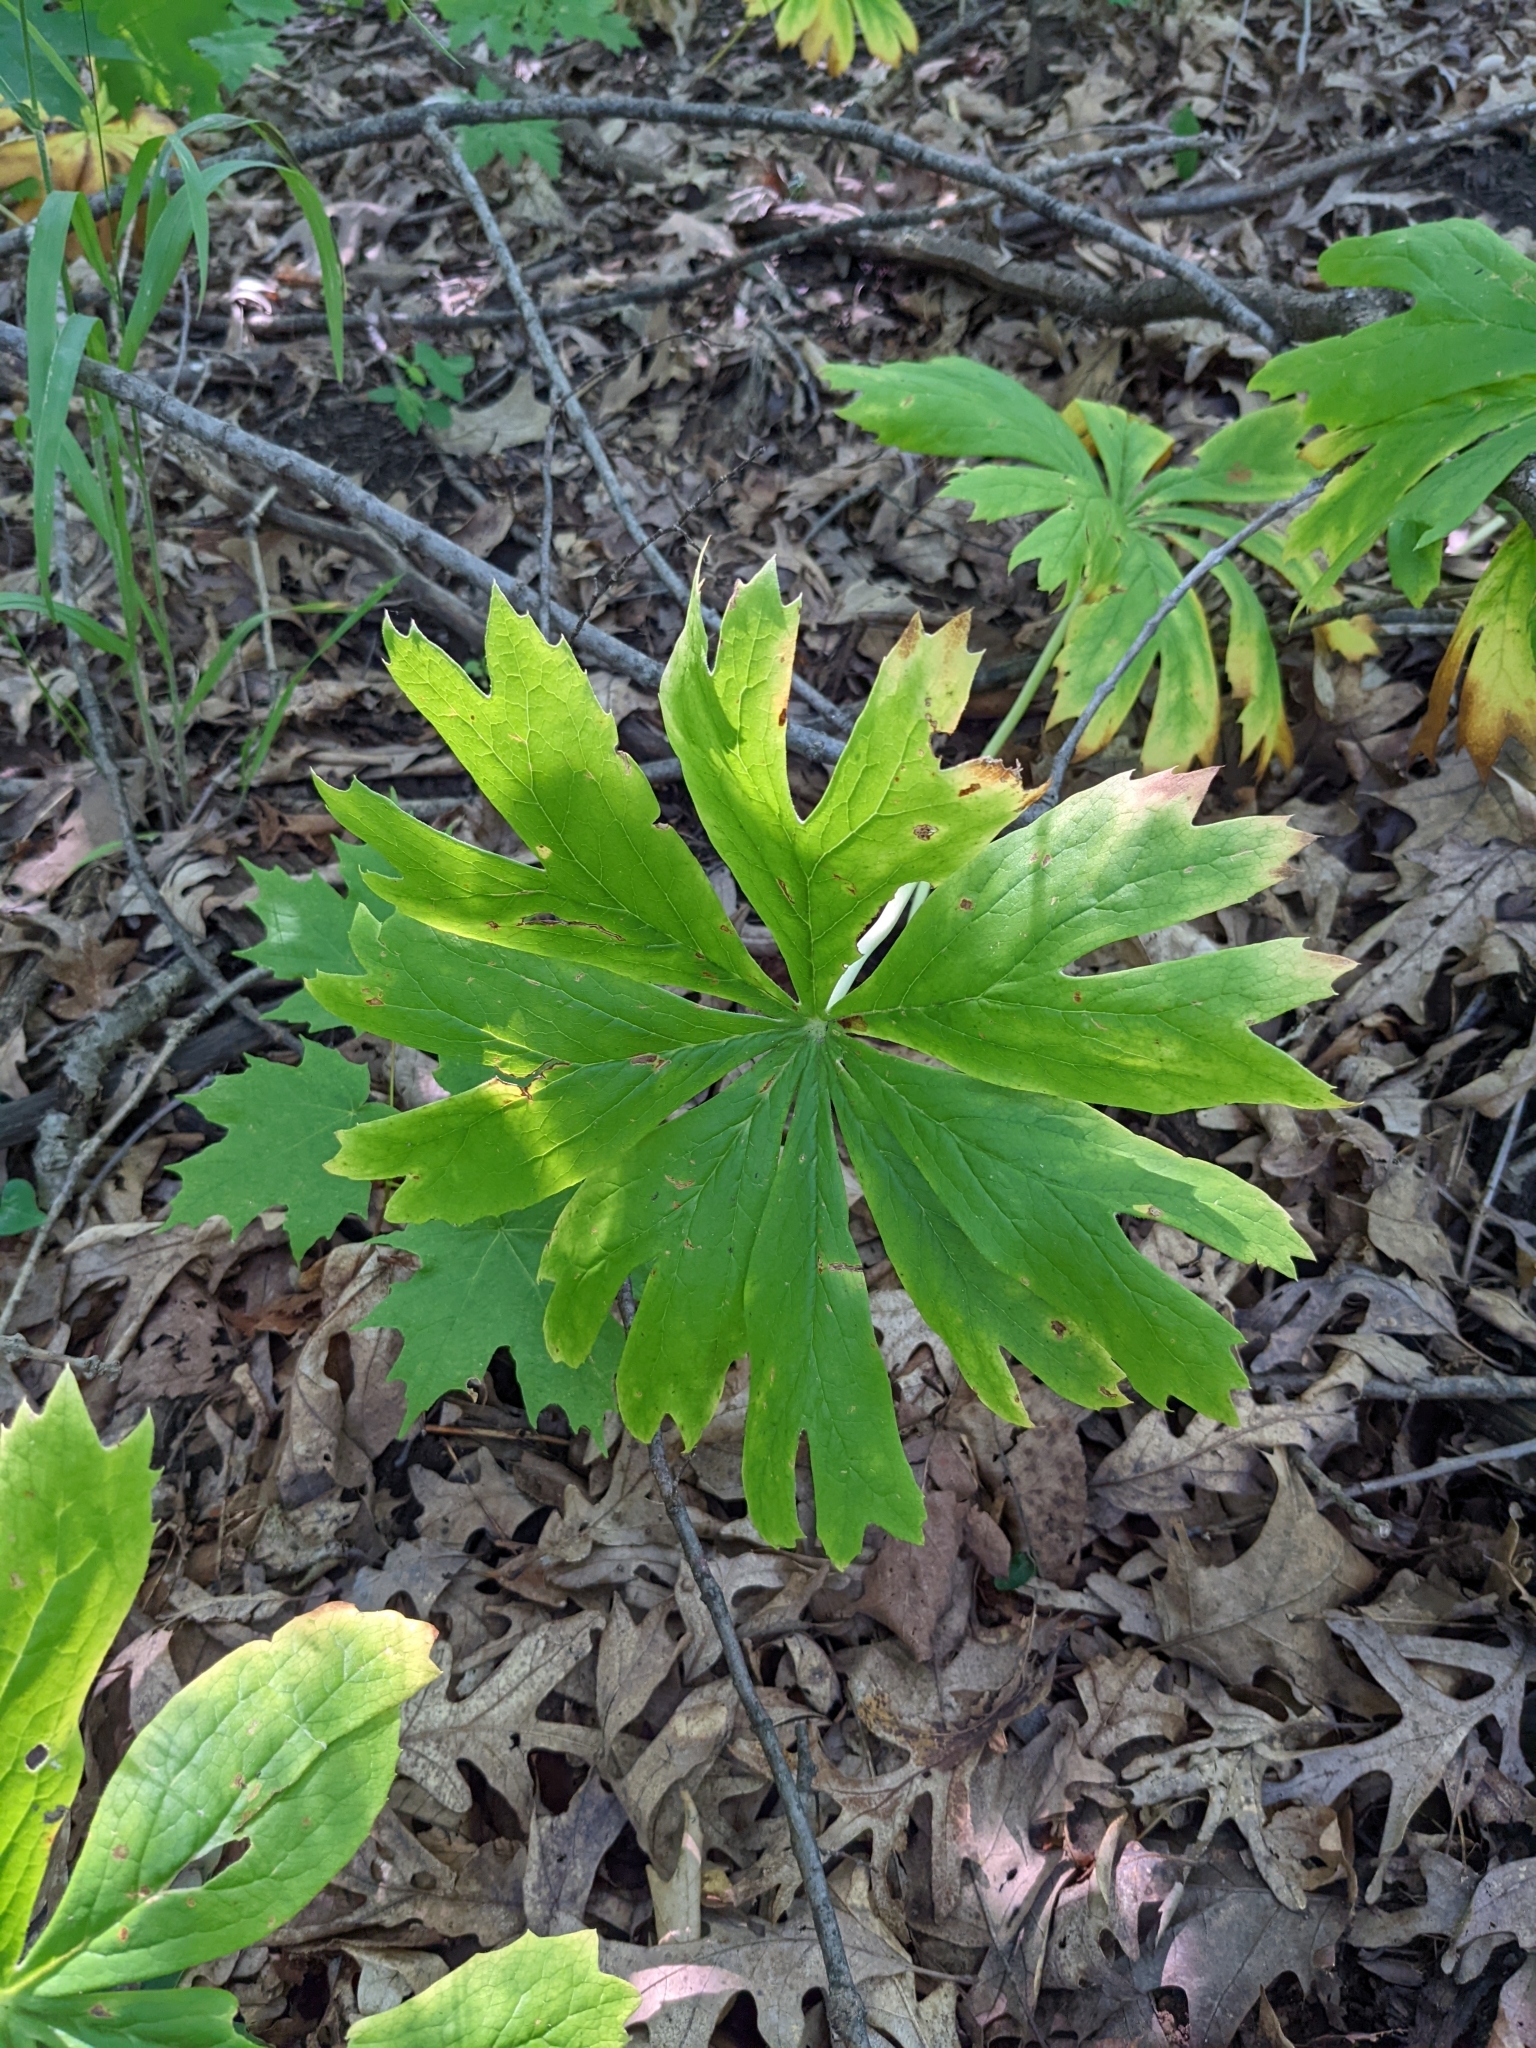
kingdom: Plantae
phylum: Tracheophyta
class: Magnoliopsida
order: Ranunculales
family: Berberidaceae
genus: Podophyllum
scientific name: Podophyllum peltatum
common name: Wild mandrake
